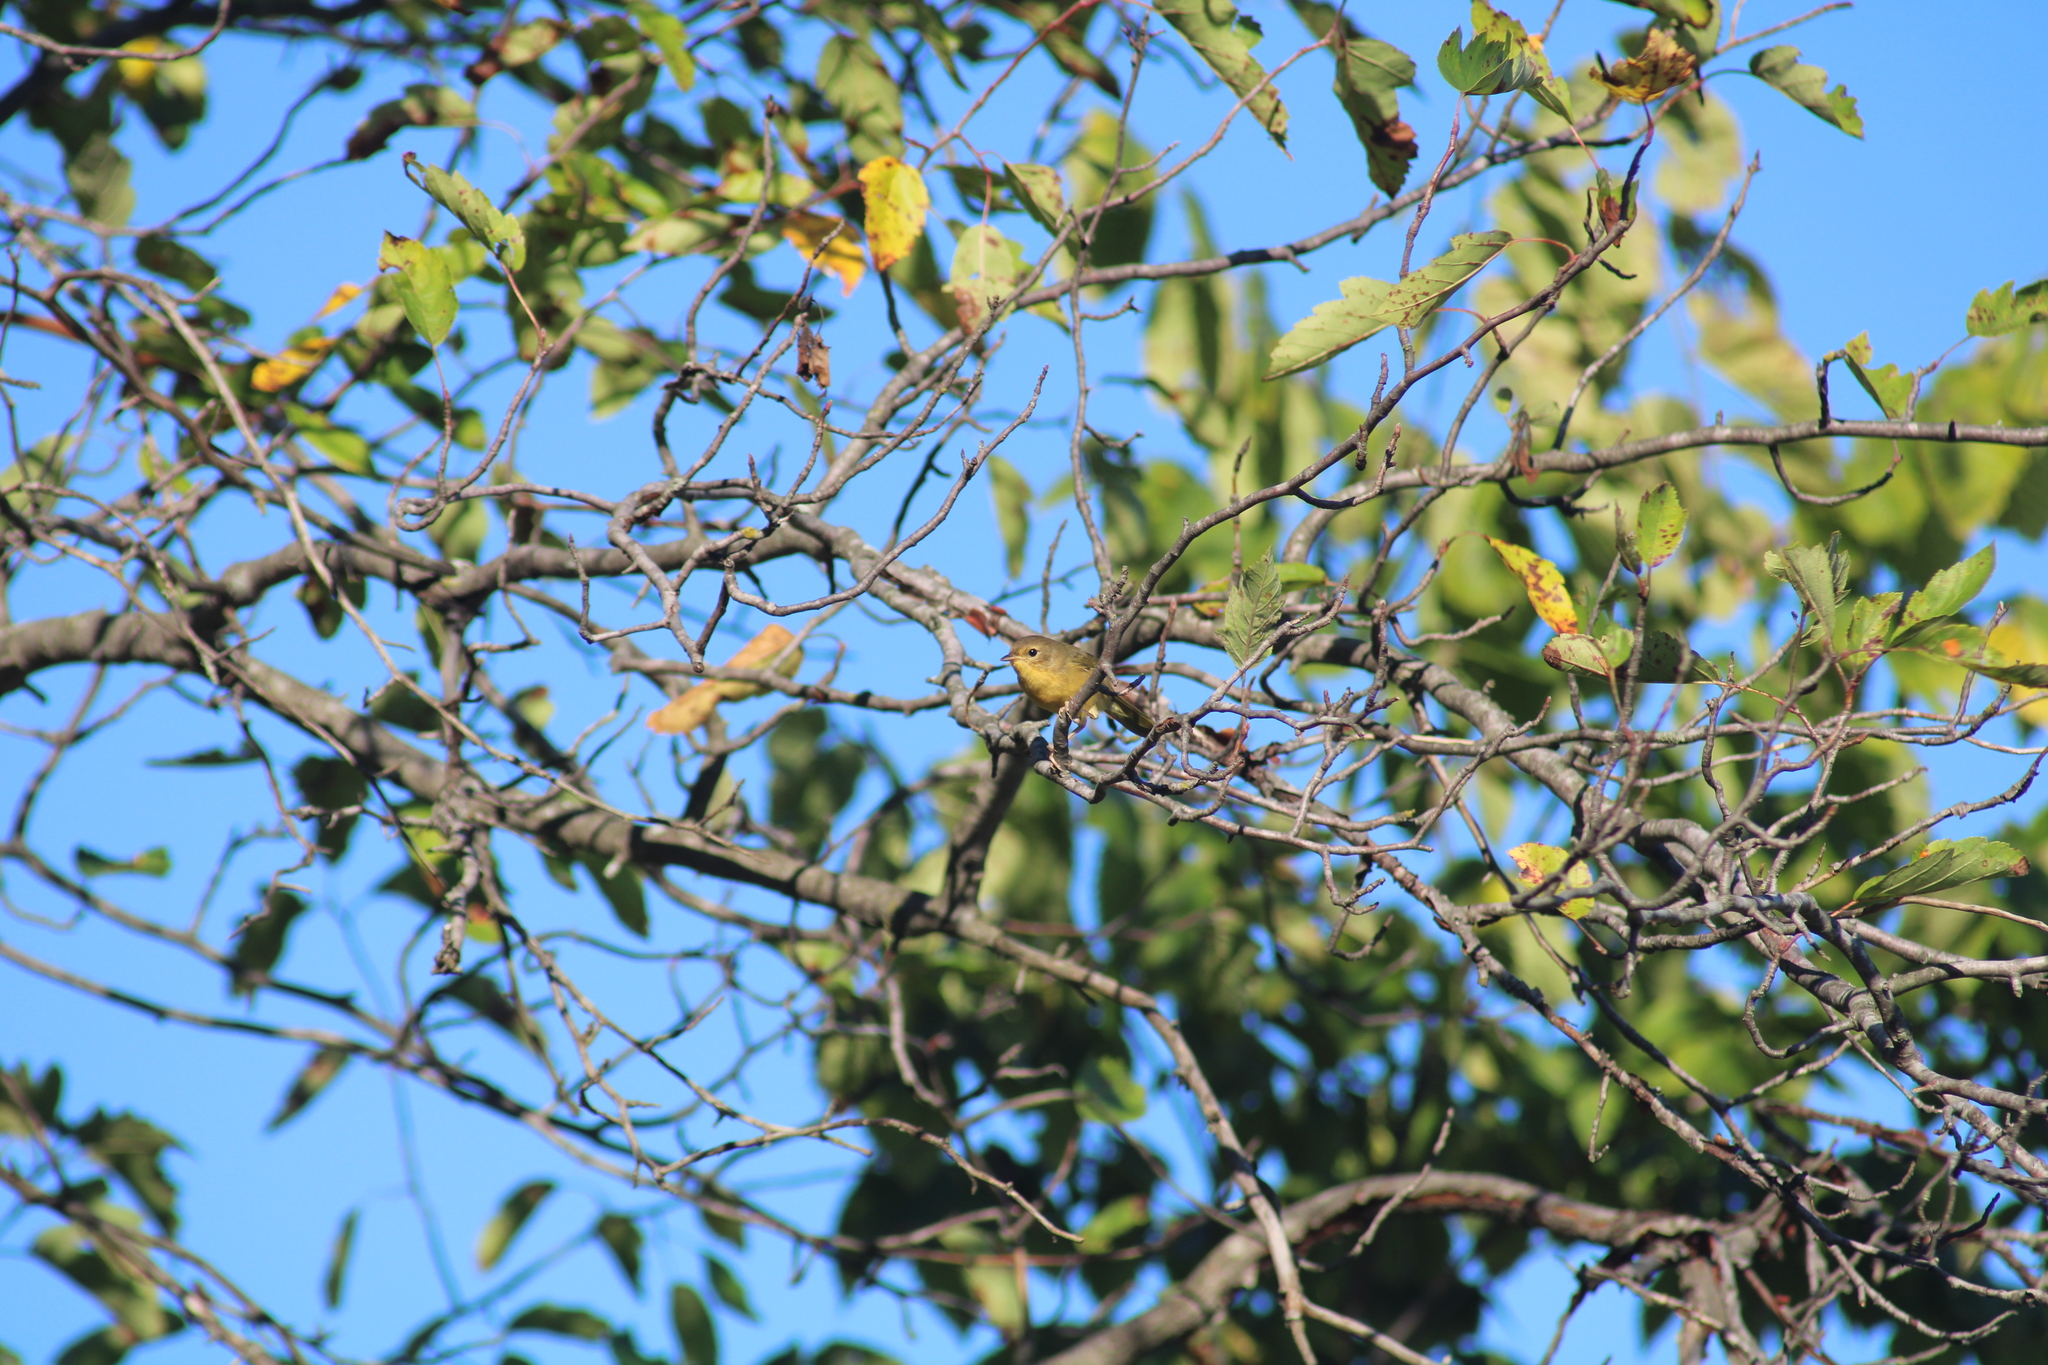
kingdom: Animalia
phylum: Chordata
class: Aves
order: Passeriformes
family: Parulidae
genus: Geothlypis
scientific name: Geothlypis trichas
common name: Common yellowthroat
